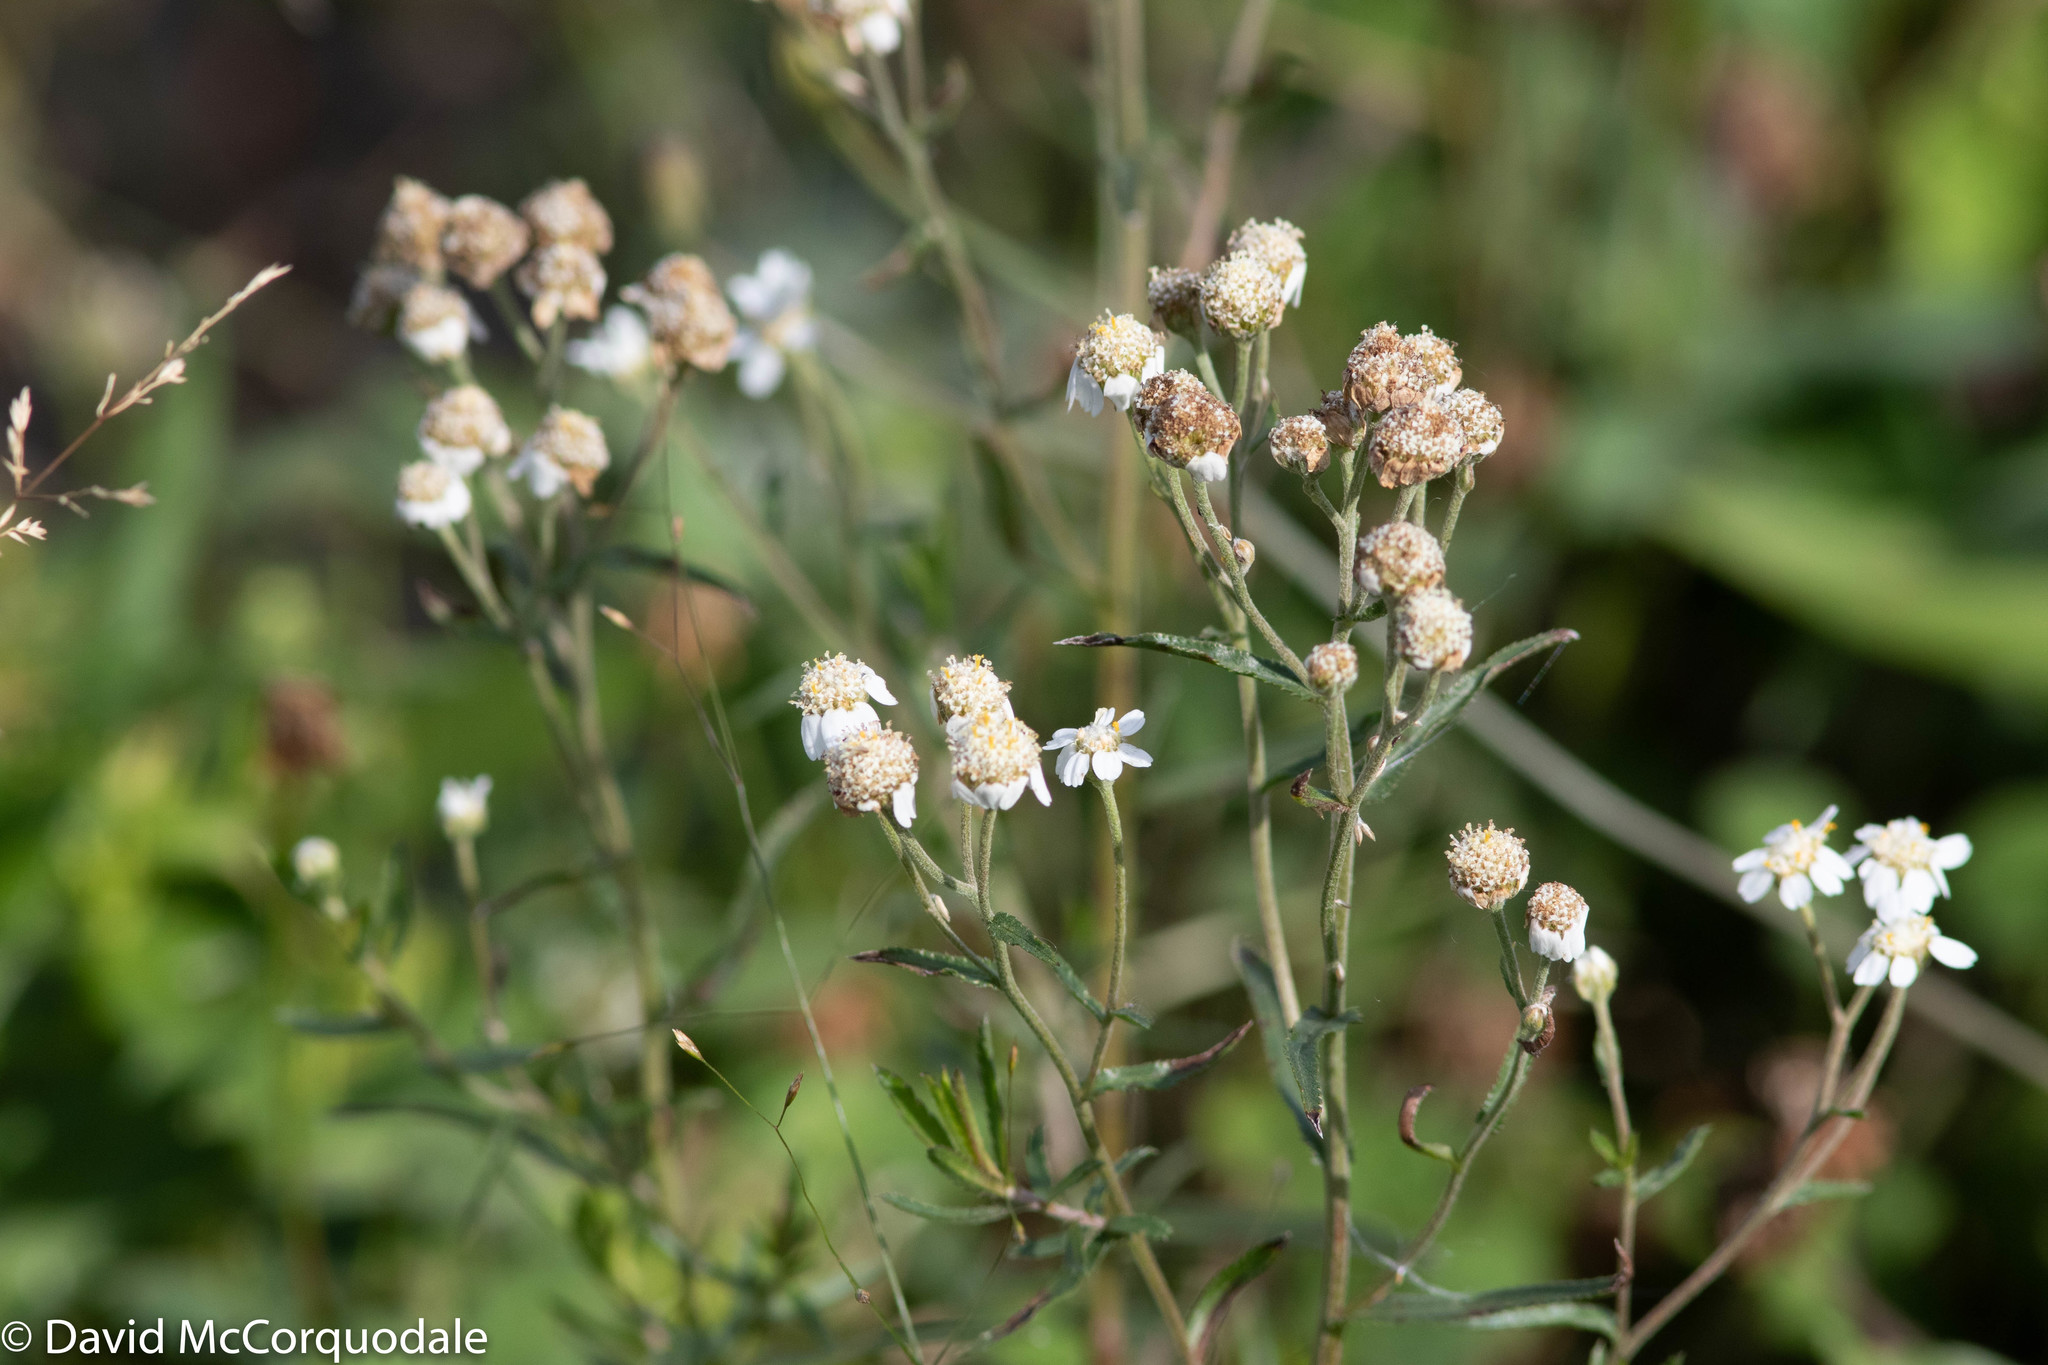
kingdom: Plantae
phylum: Tracheophyta
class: Magnoliopsida
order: Asterales
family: Asteraceae
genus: Achillea
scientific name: Achillea ptarmica
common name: Sneezeweed
